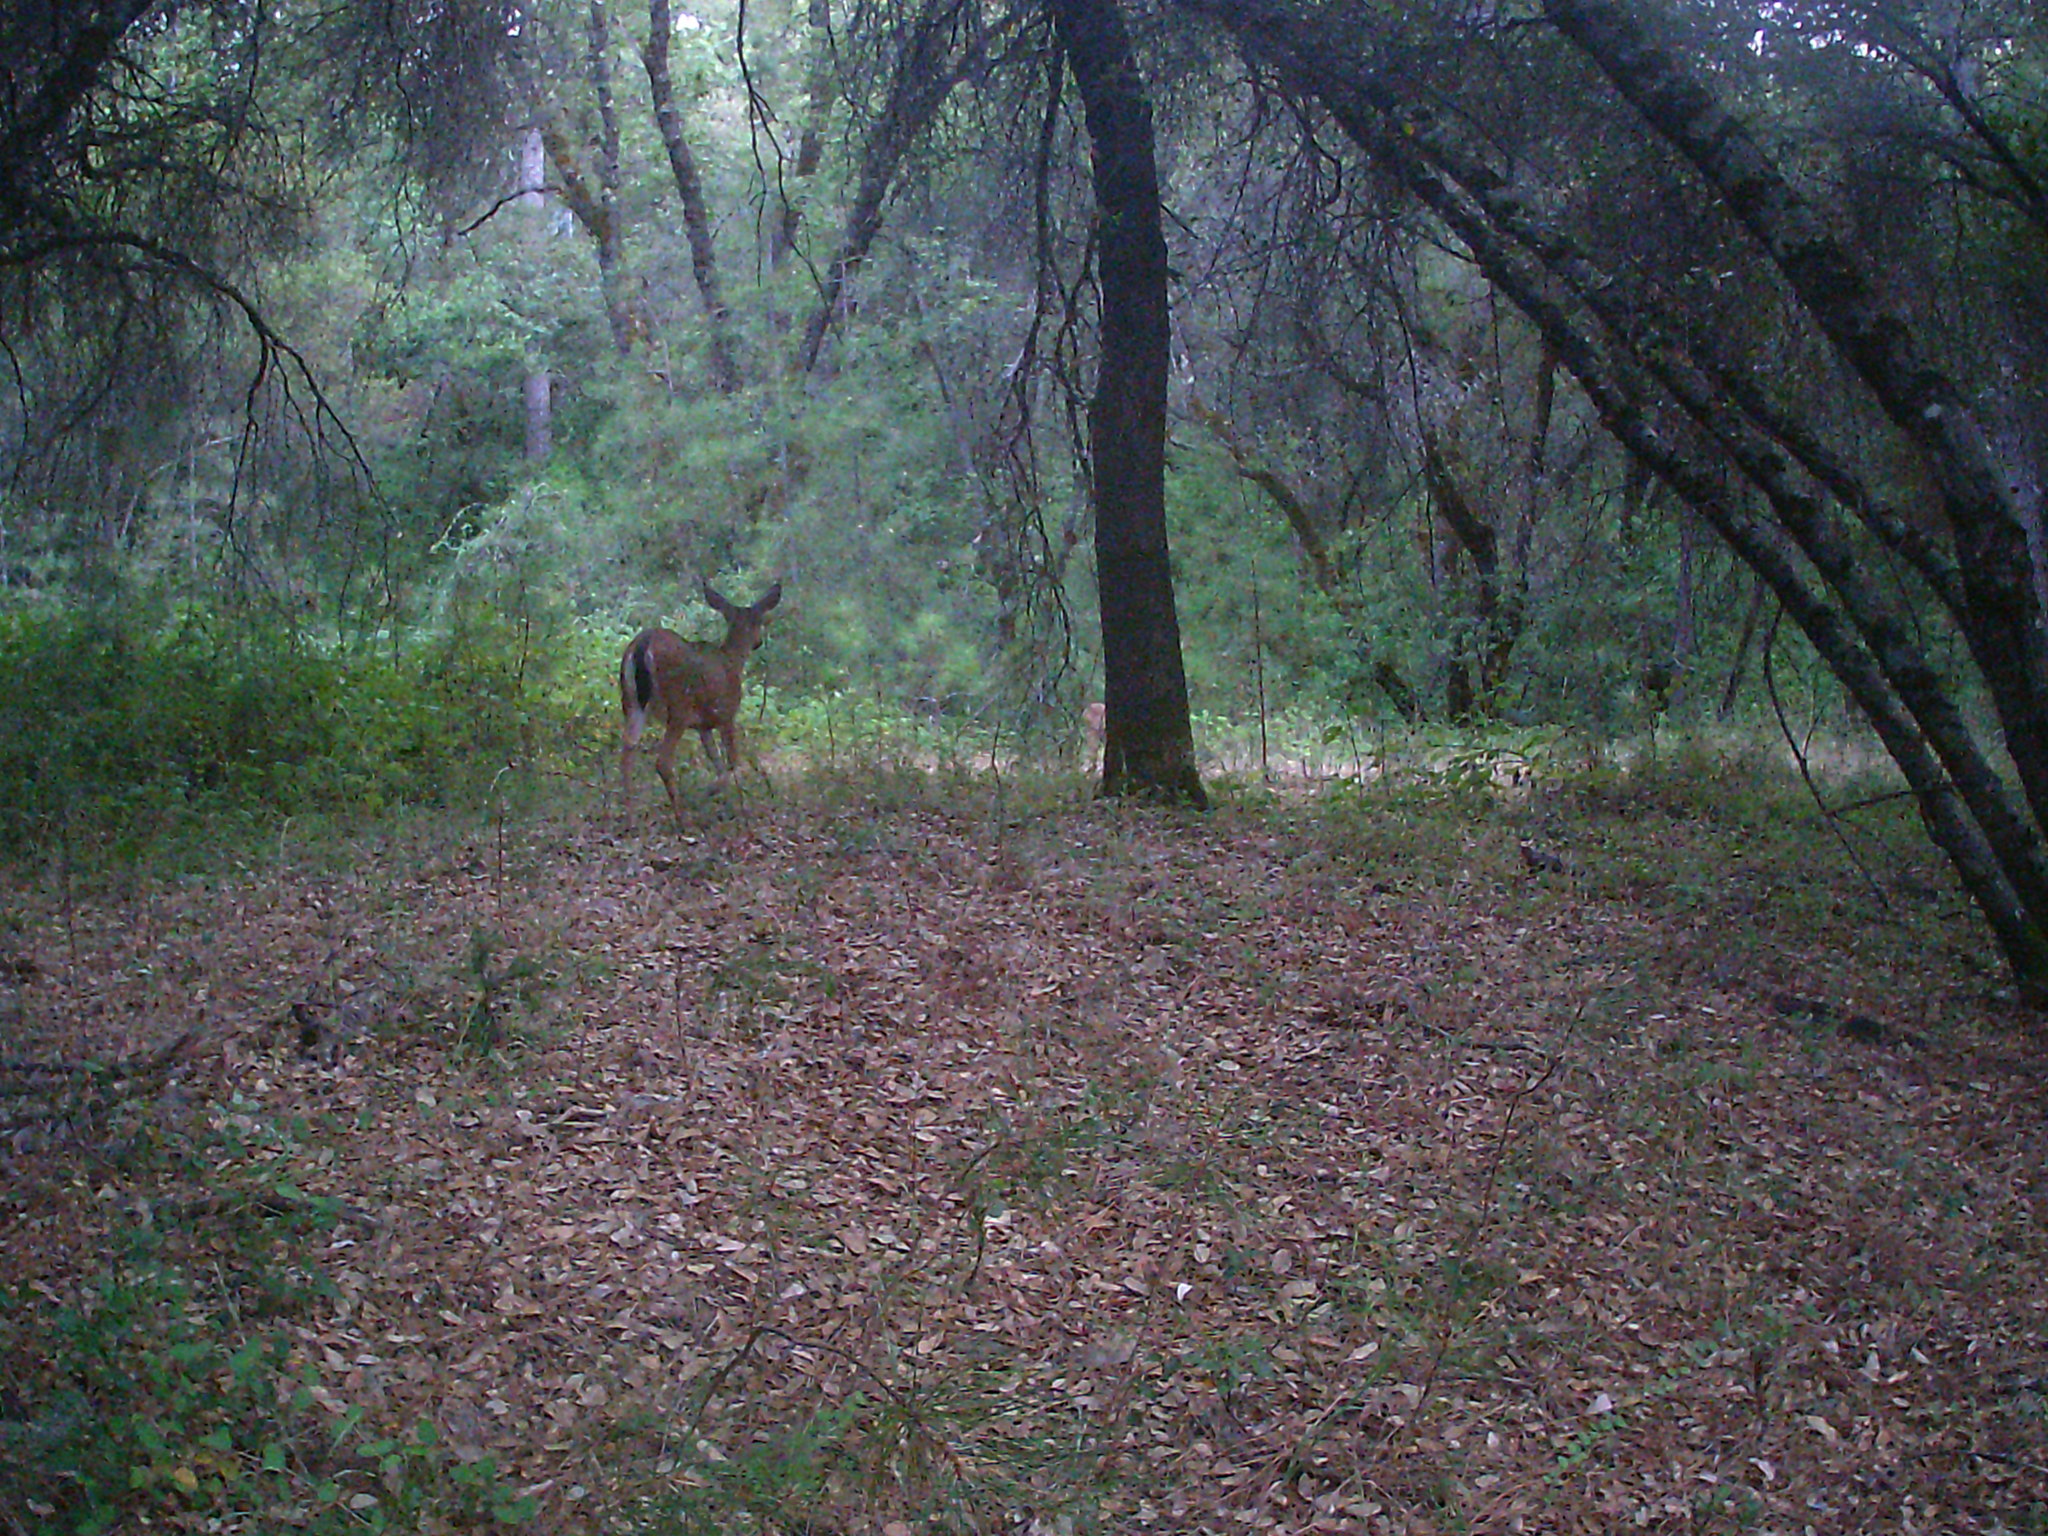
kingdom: Animalia
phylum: Chordata
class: Mammalia
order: Artiodactyla
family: Cervidae
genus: Odocoileus
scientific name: Odocoileus hemionus
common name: Mule deer
